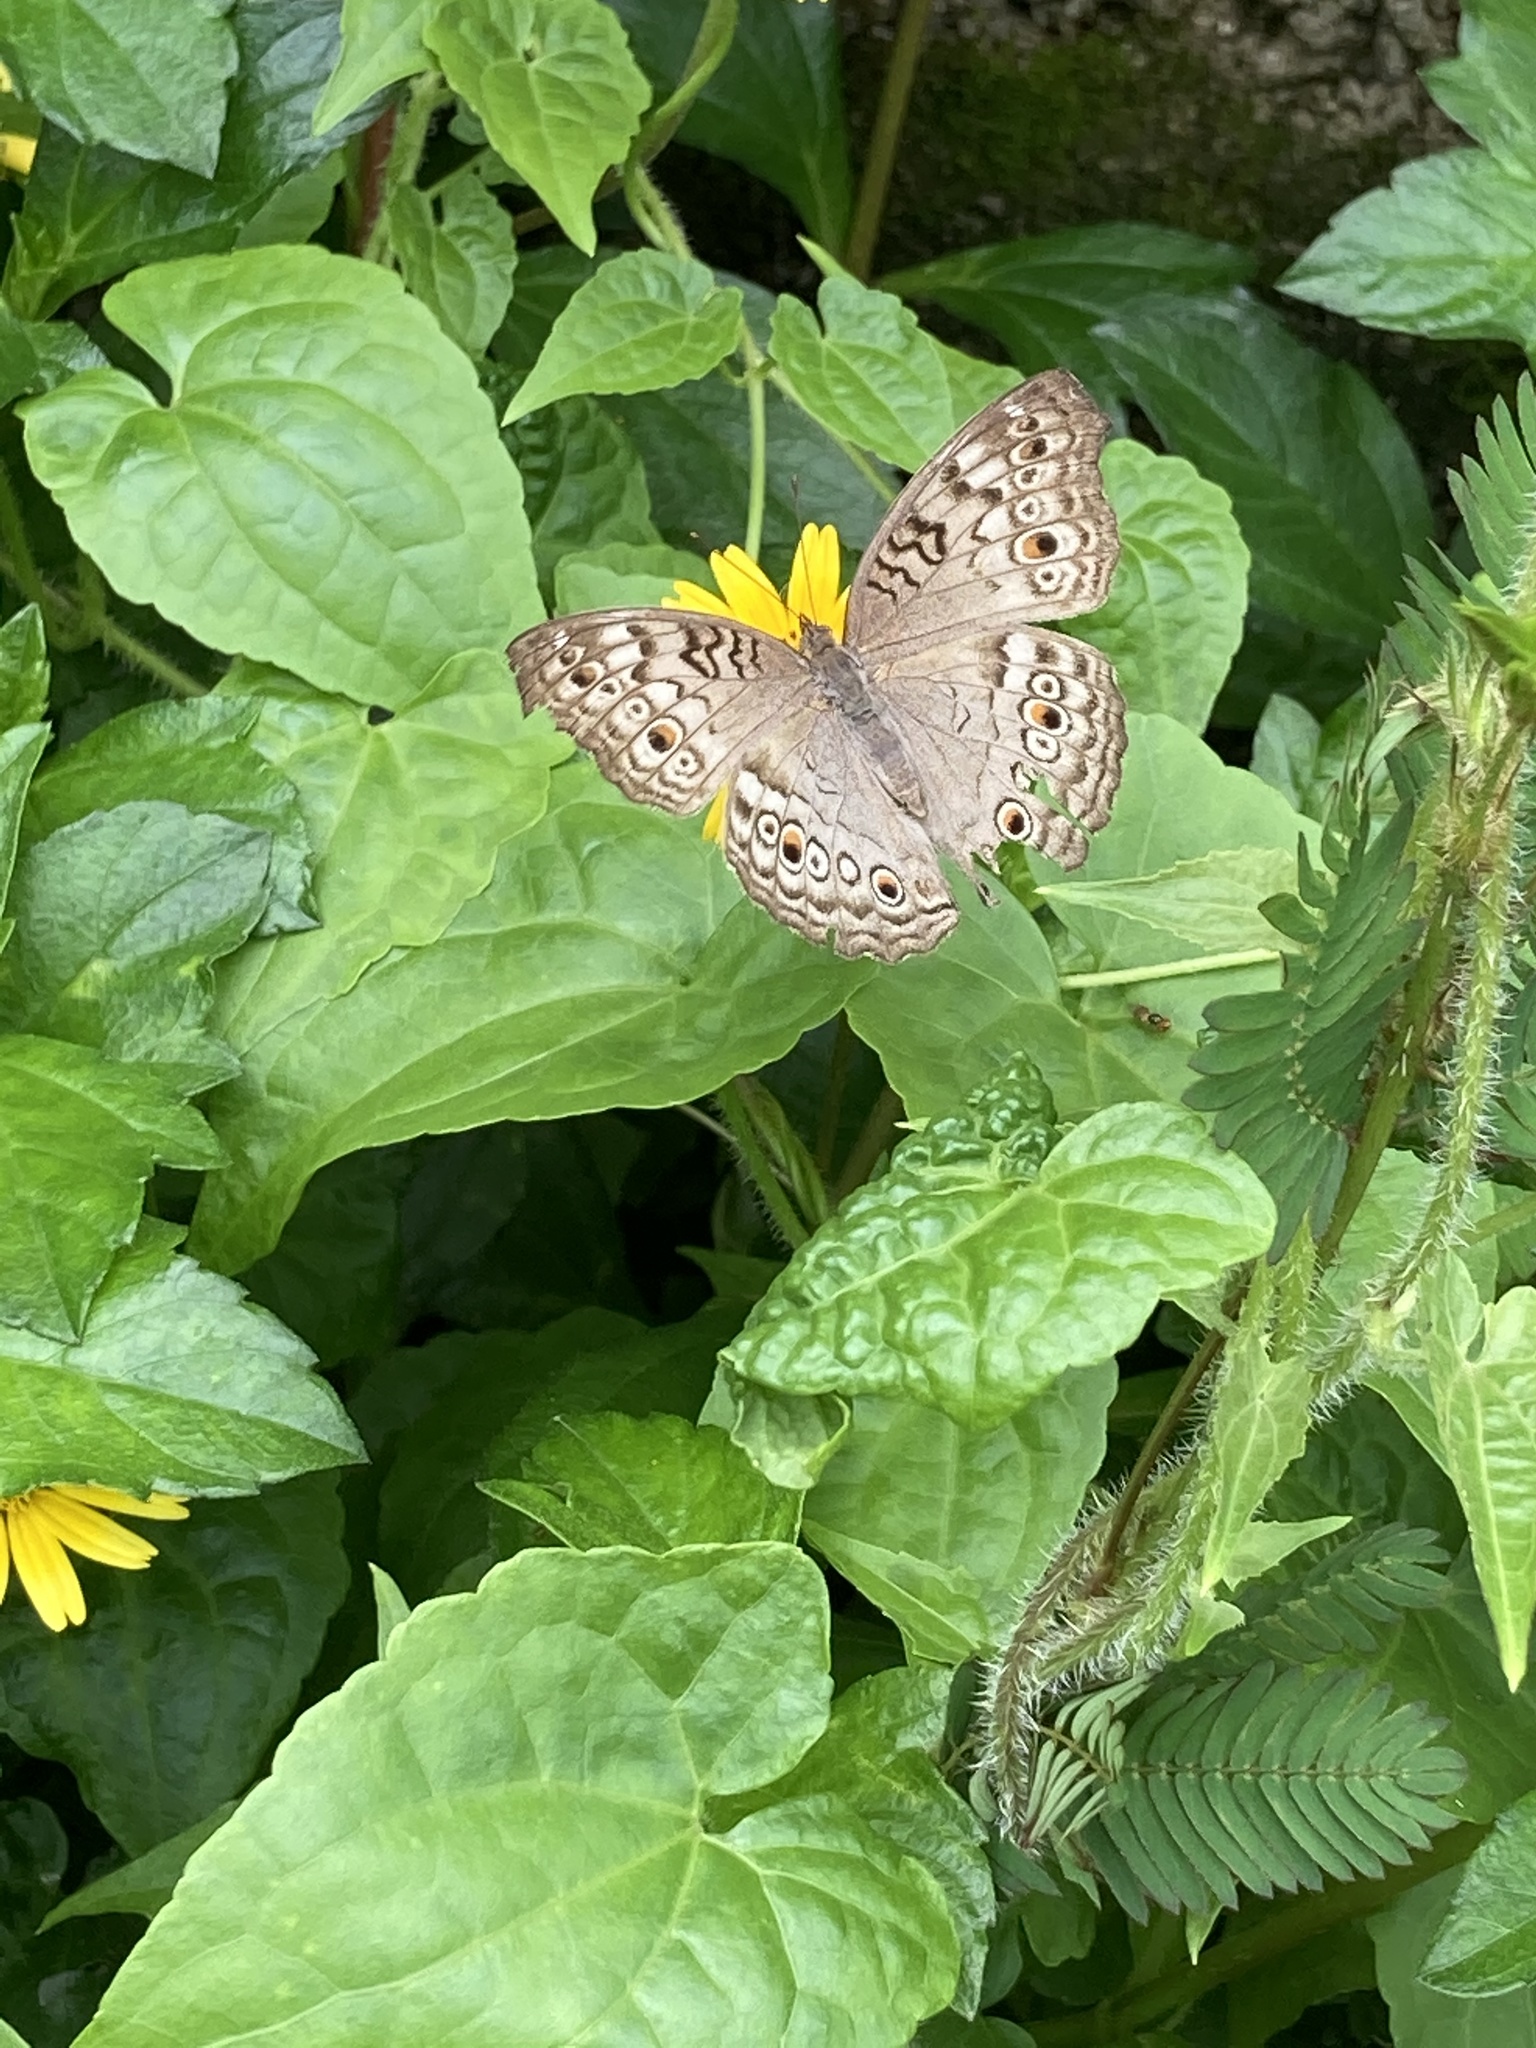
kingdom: Animalia
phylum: Arthropoda
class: Insecta
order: Lepidoptera
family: Nymphalidae
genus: Junonia
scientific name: Junonia atlites
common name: Grey pansy
